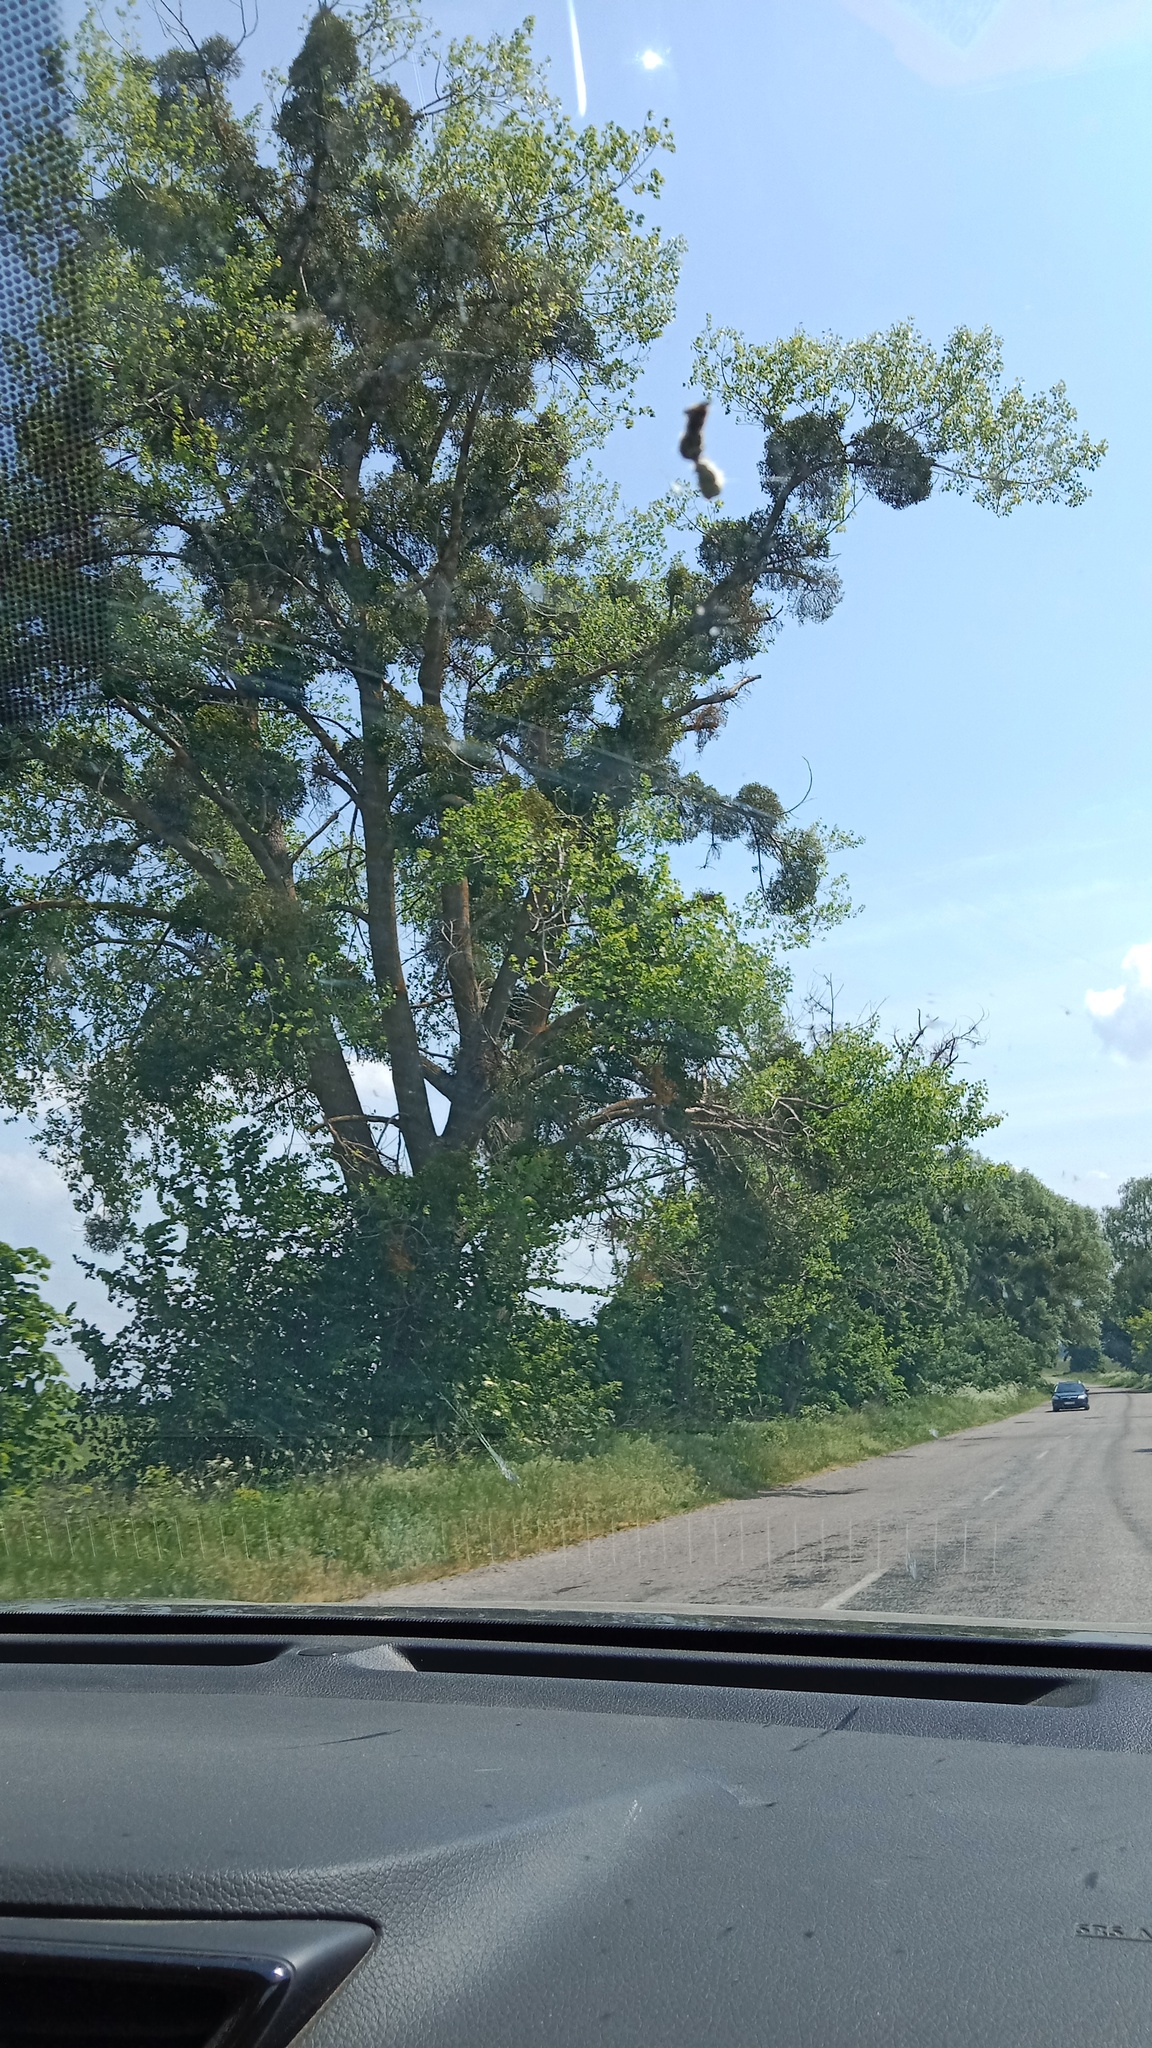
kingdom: Plantae
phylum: Tracheophyta
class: Magnoliopsida
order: Santalales
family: Viscaceae
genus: Viscum
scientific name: Viscum album
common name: Mistletoe
